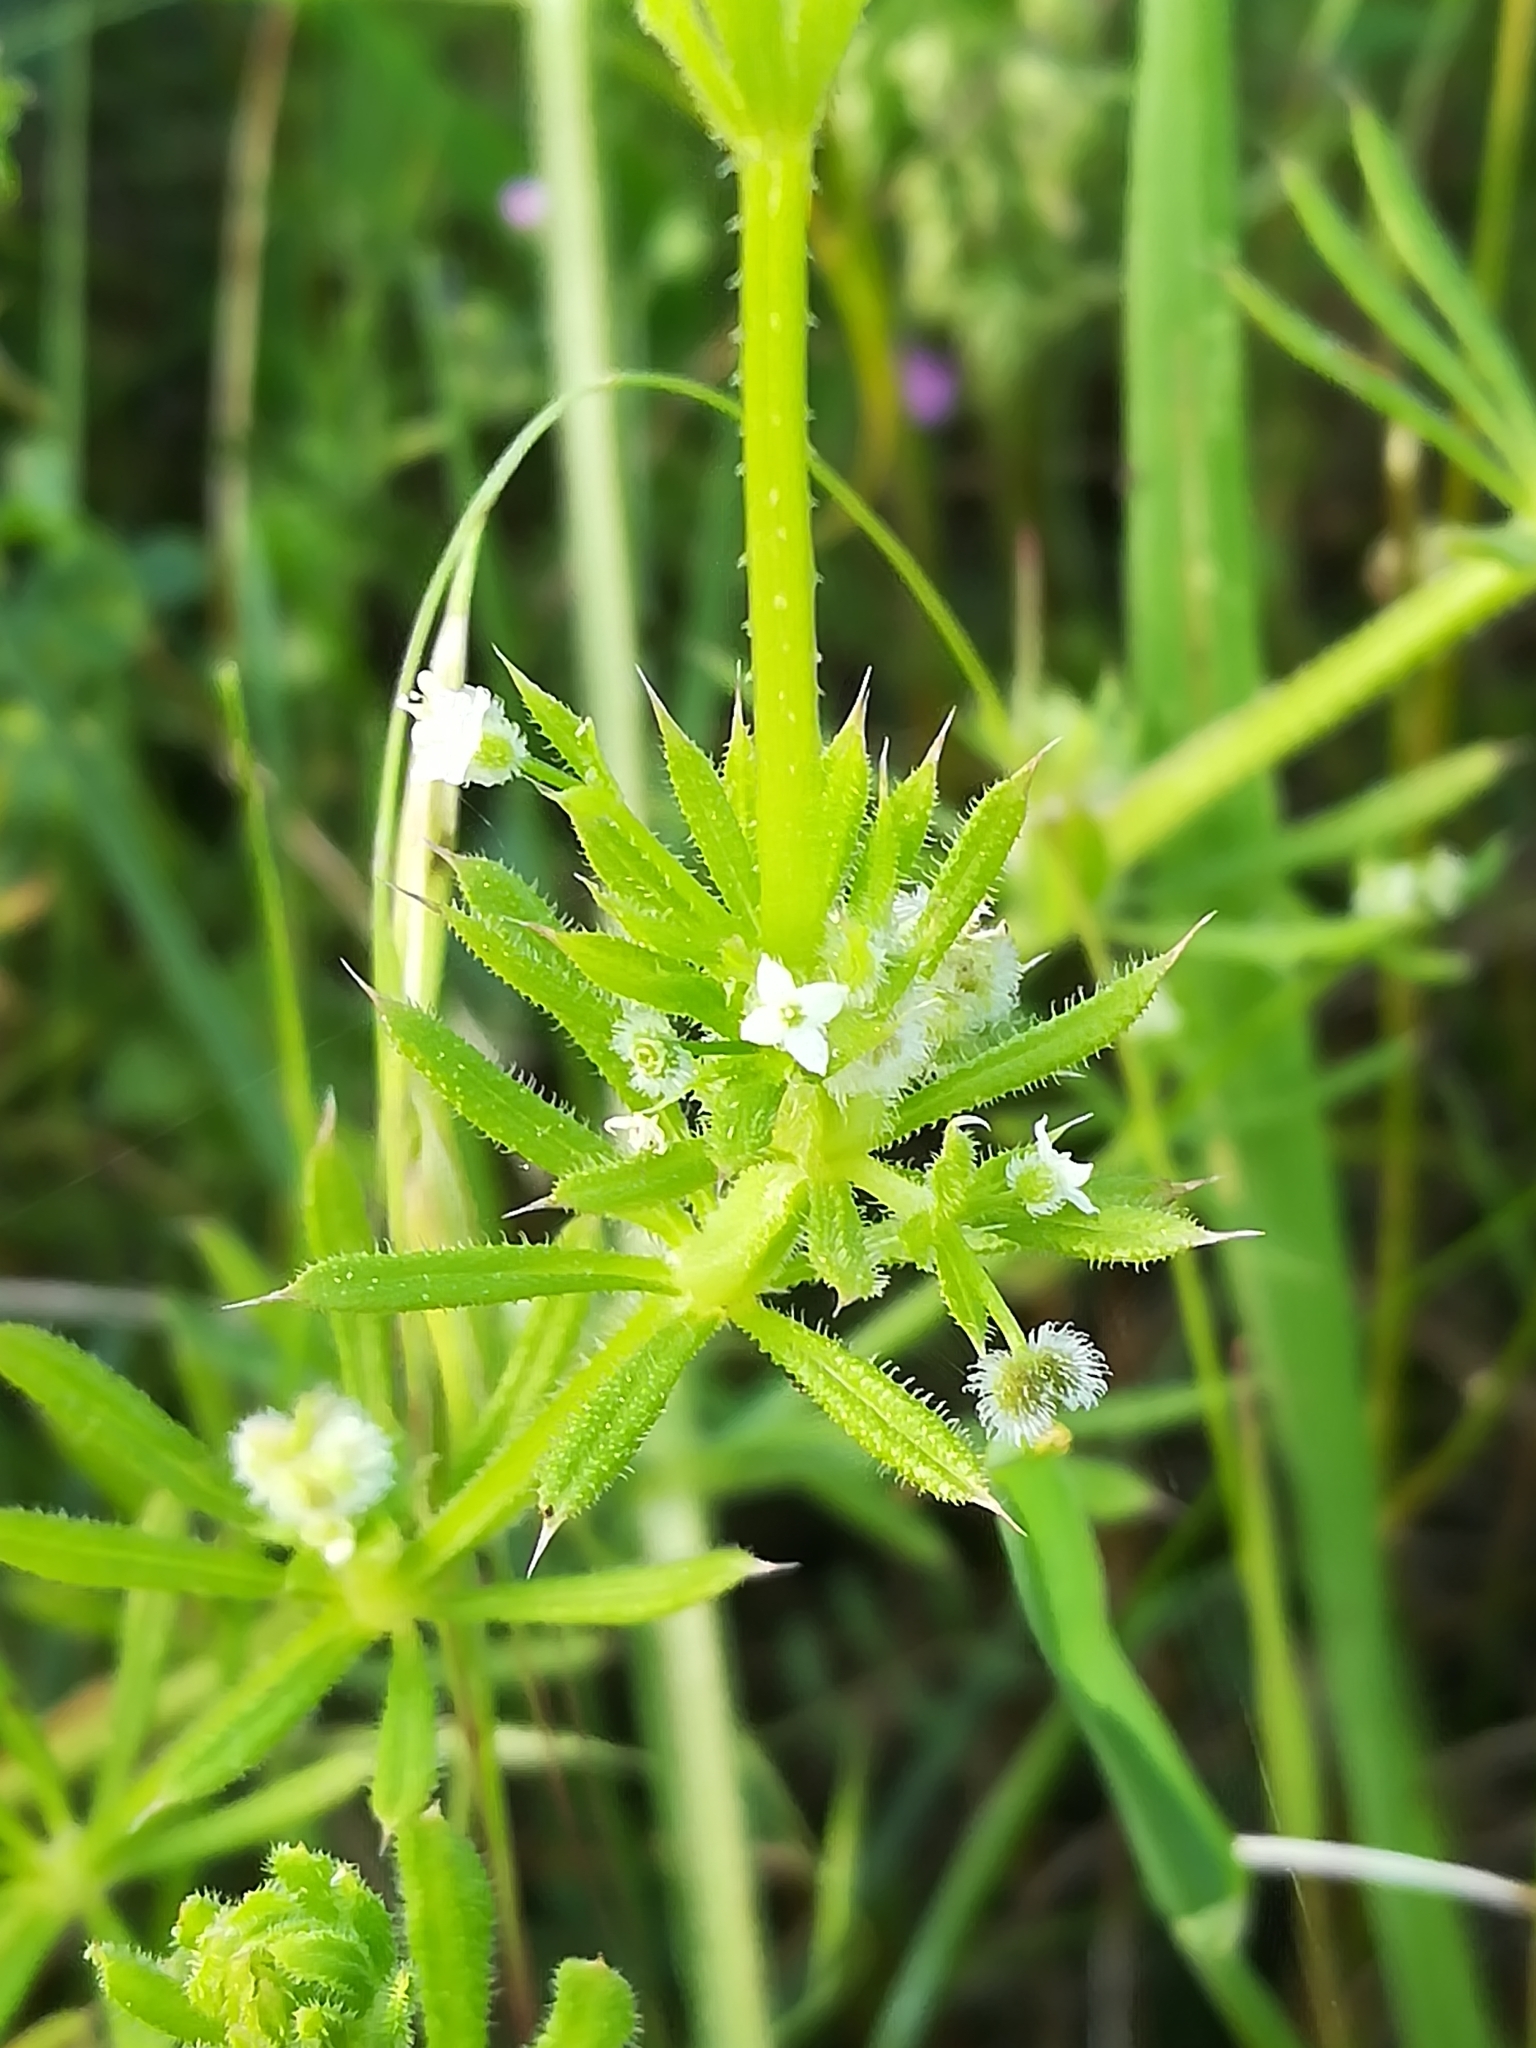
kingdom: Plantae
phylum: Tracheophyta
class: Magnoliopsida
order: Gentianales
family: Rubiaceae
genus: Galium
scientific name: Galium aparine
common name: Cleavers
